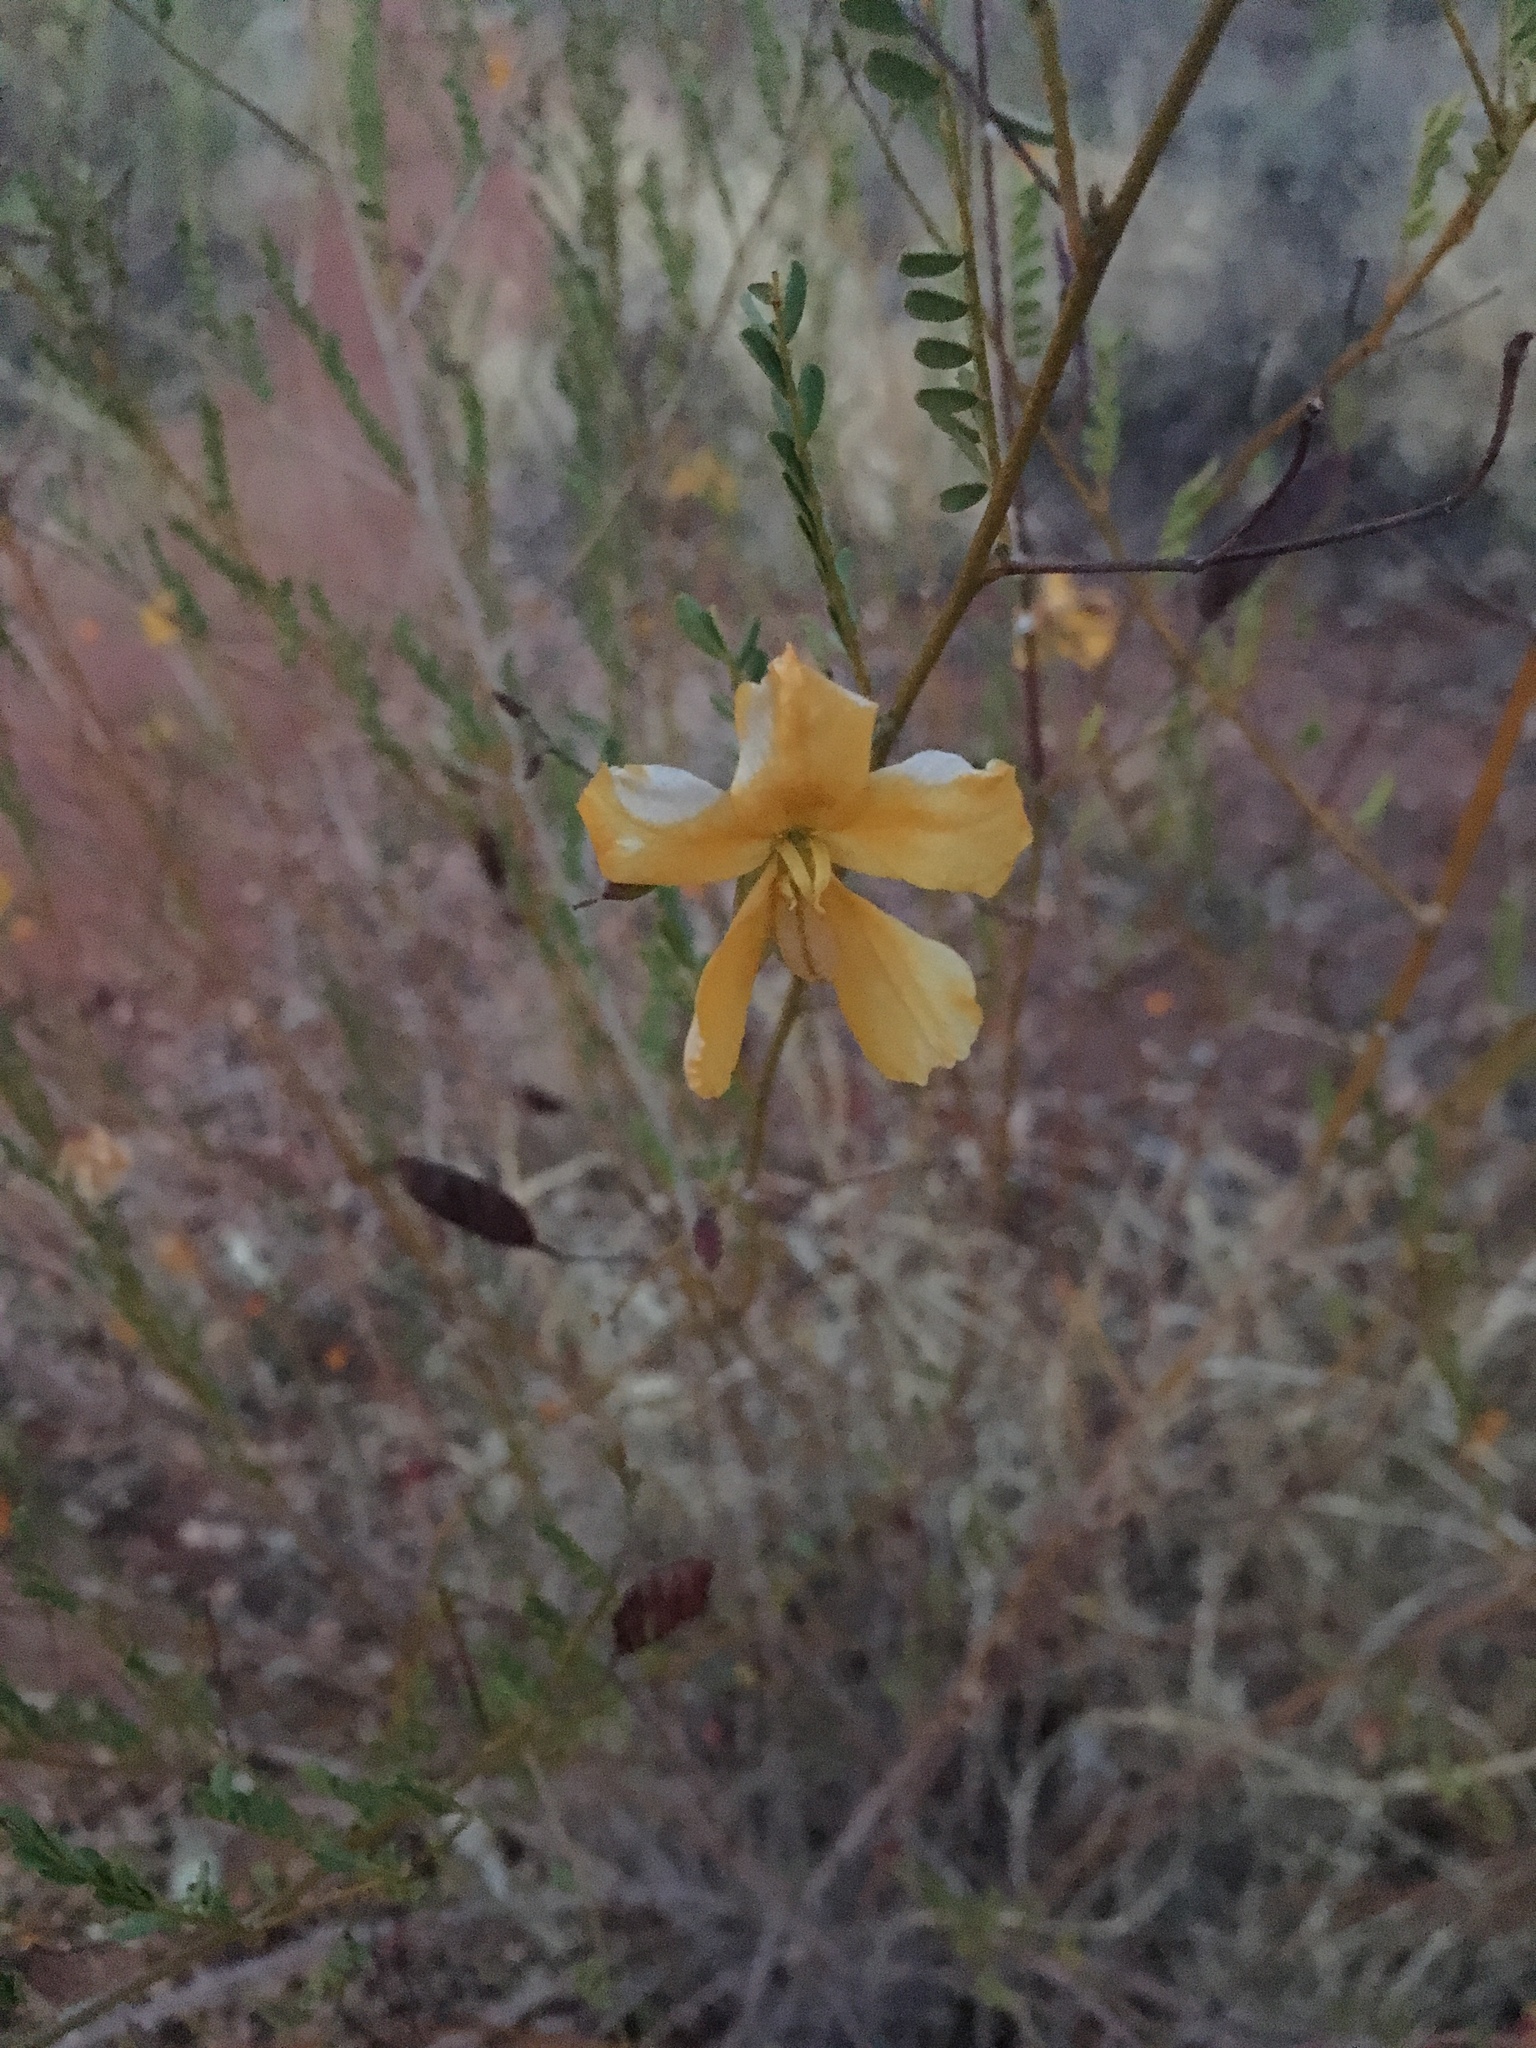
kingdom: Plantae
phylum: Tracheophyta
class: Magnoliopsida
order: Fabales
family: Fabaceae
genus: Petalostylis
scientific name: Petalostylis cassioides
